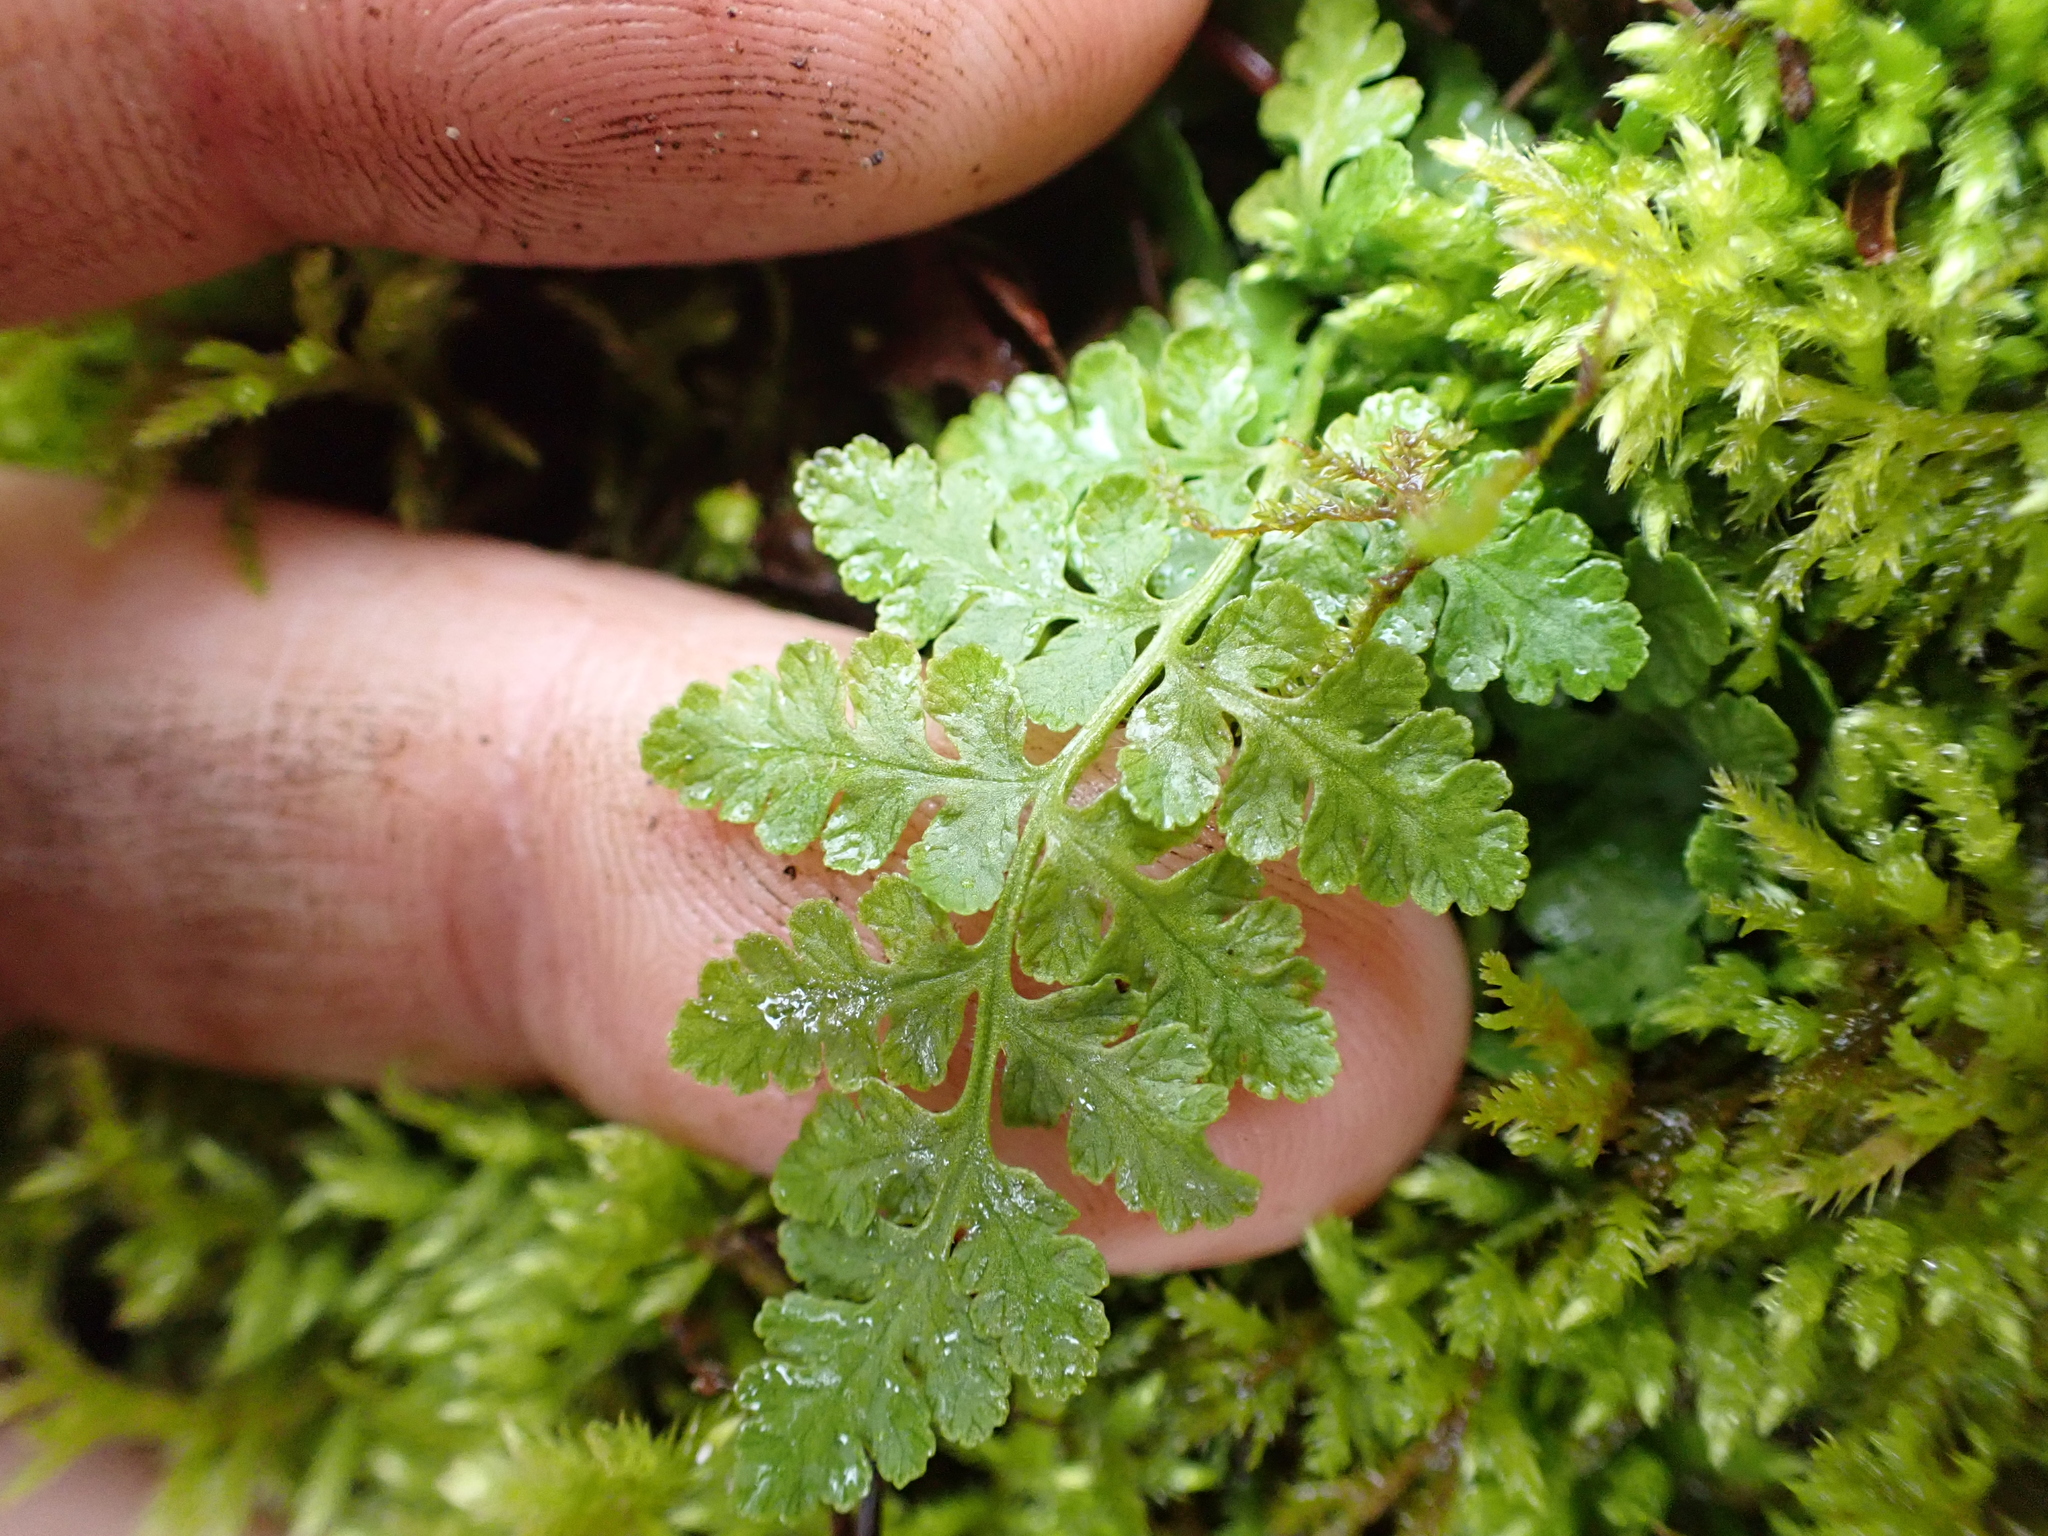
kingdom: Plantae
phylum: Tracheophyta
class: Polypodiopsida
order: Polypodiales
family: Woodsiaceae
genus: Physematium
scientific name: Physematium obtusum
